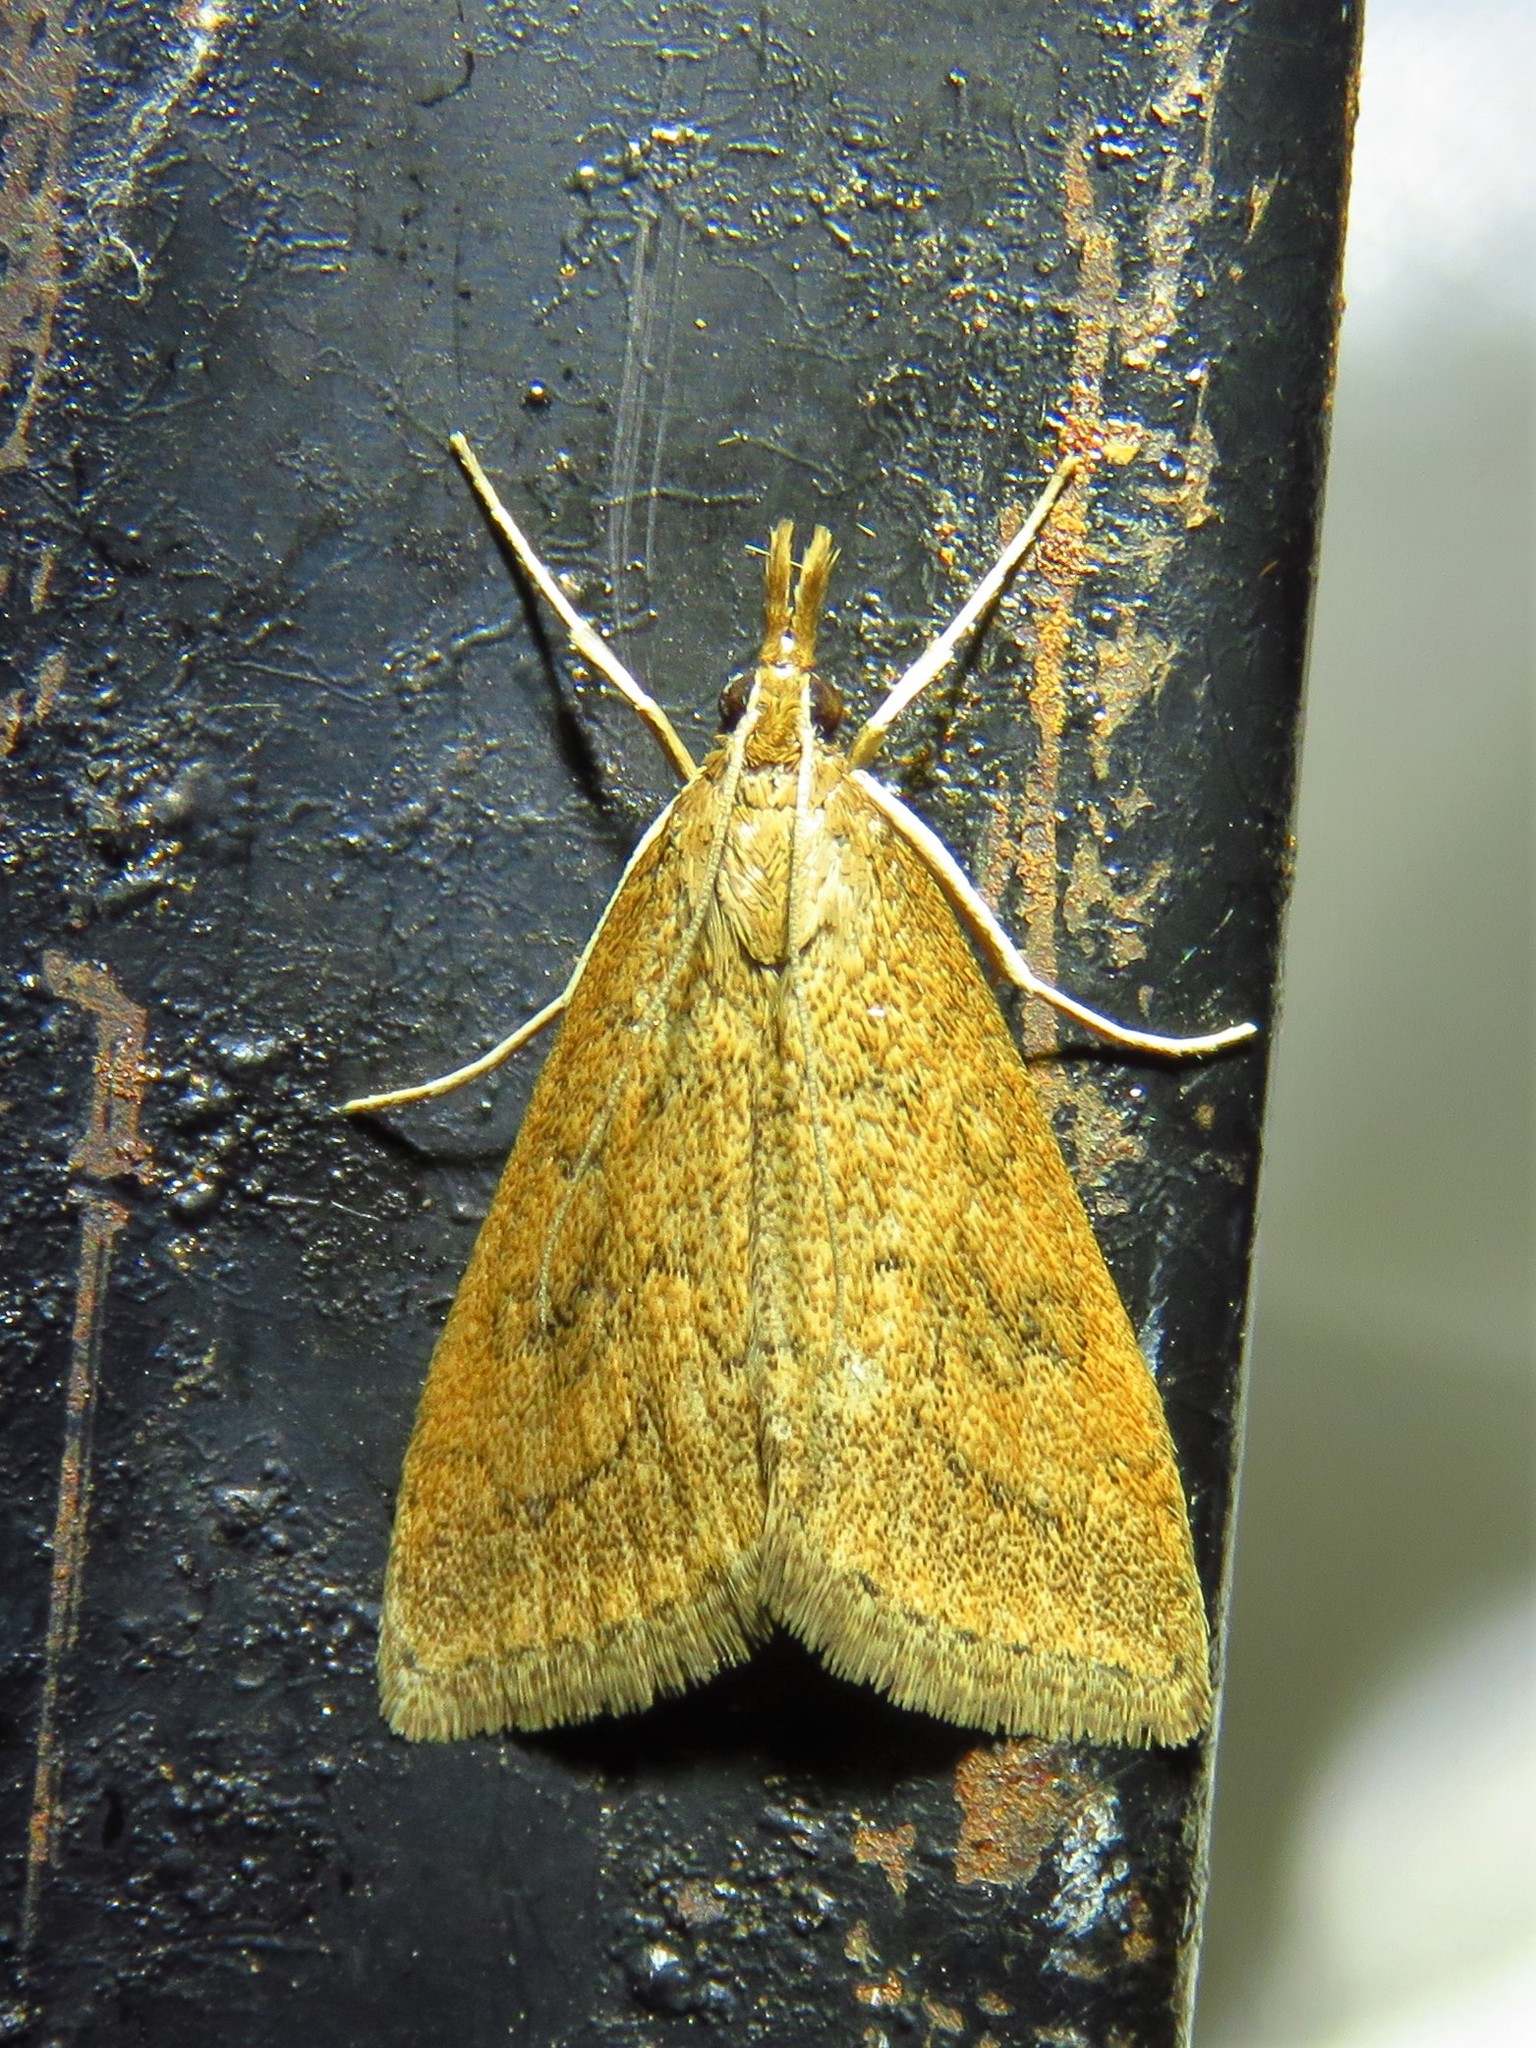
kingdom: Animalia
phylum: Arthropoda
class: Insecta
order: Lepidoptera
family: Crambidae
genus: Udea
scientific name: Udea rubigalis
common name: Celery leaftier moth
